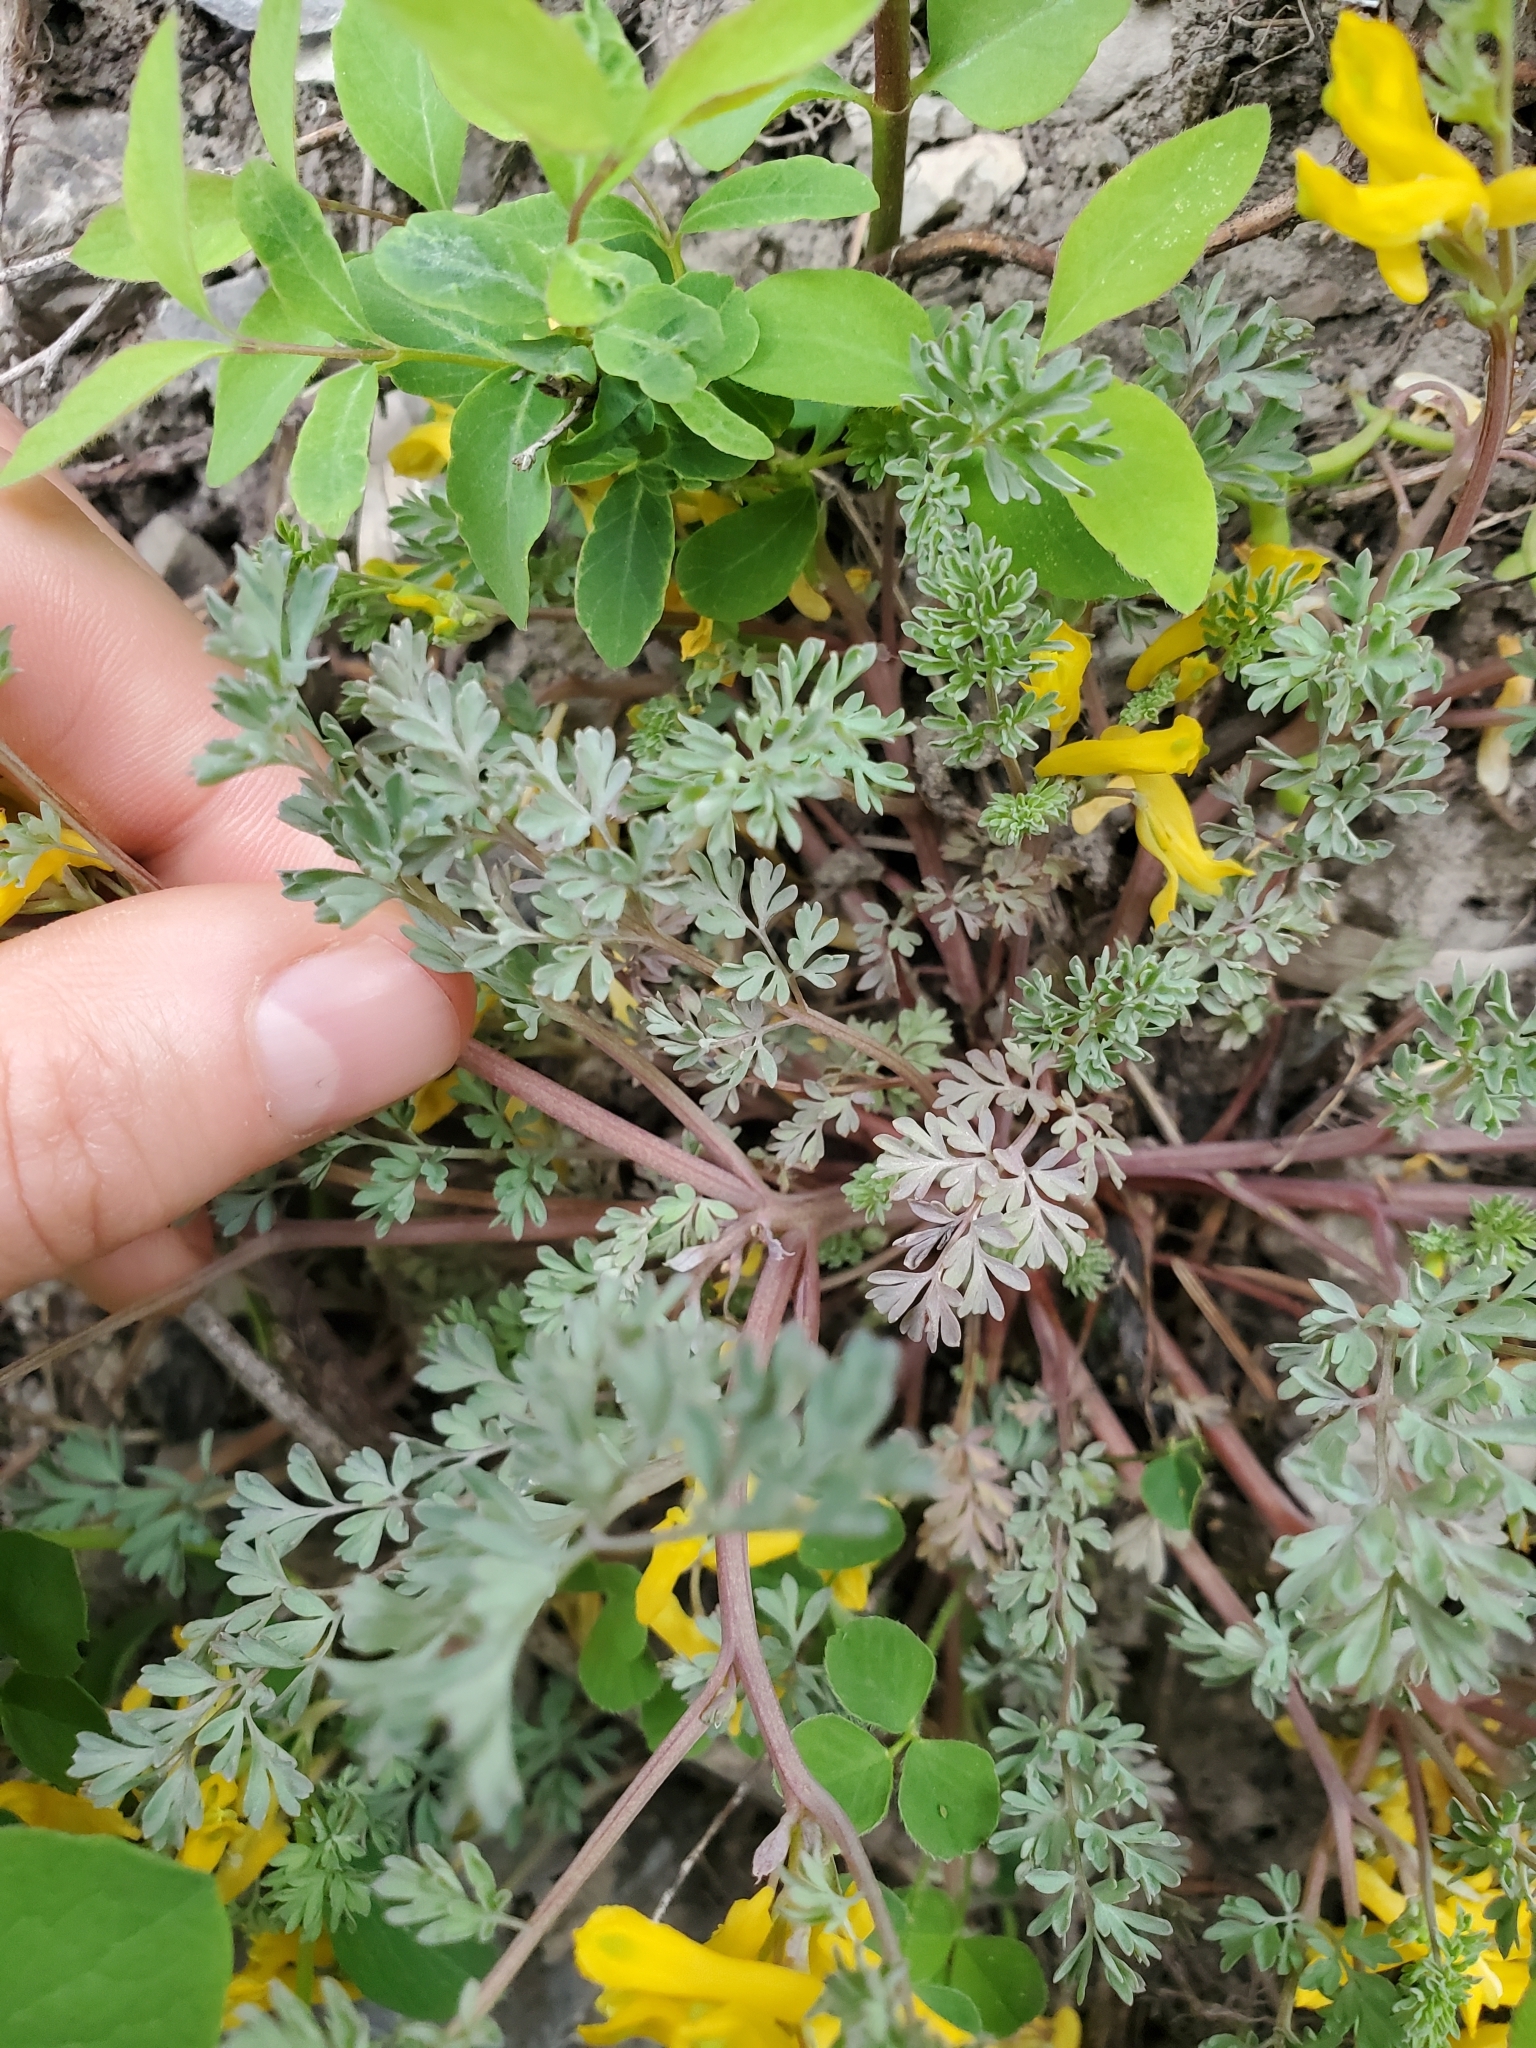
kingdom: Plantae
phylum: Tracheophyta
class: Magnoliopsida
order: Ranunculales
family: Papaveraceae
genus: Corydalis
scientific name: Corydalis aurea
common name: Golden corydalis
